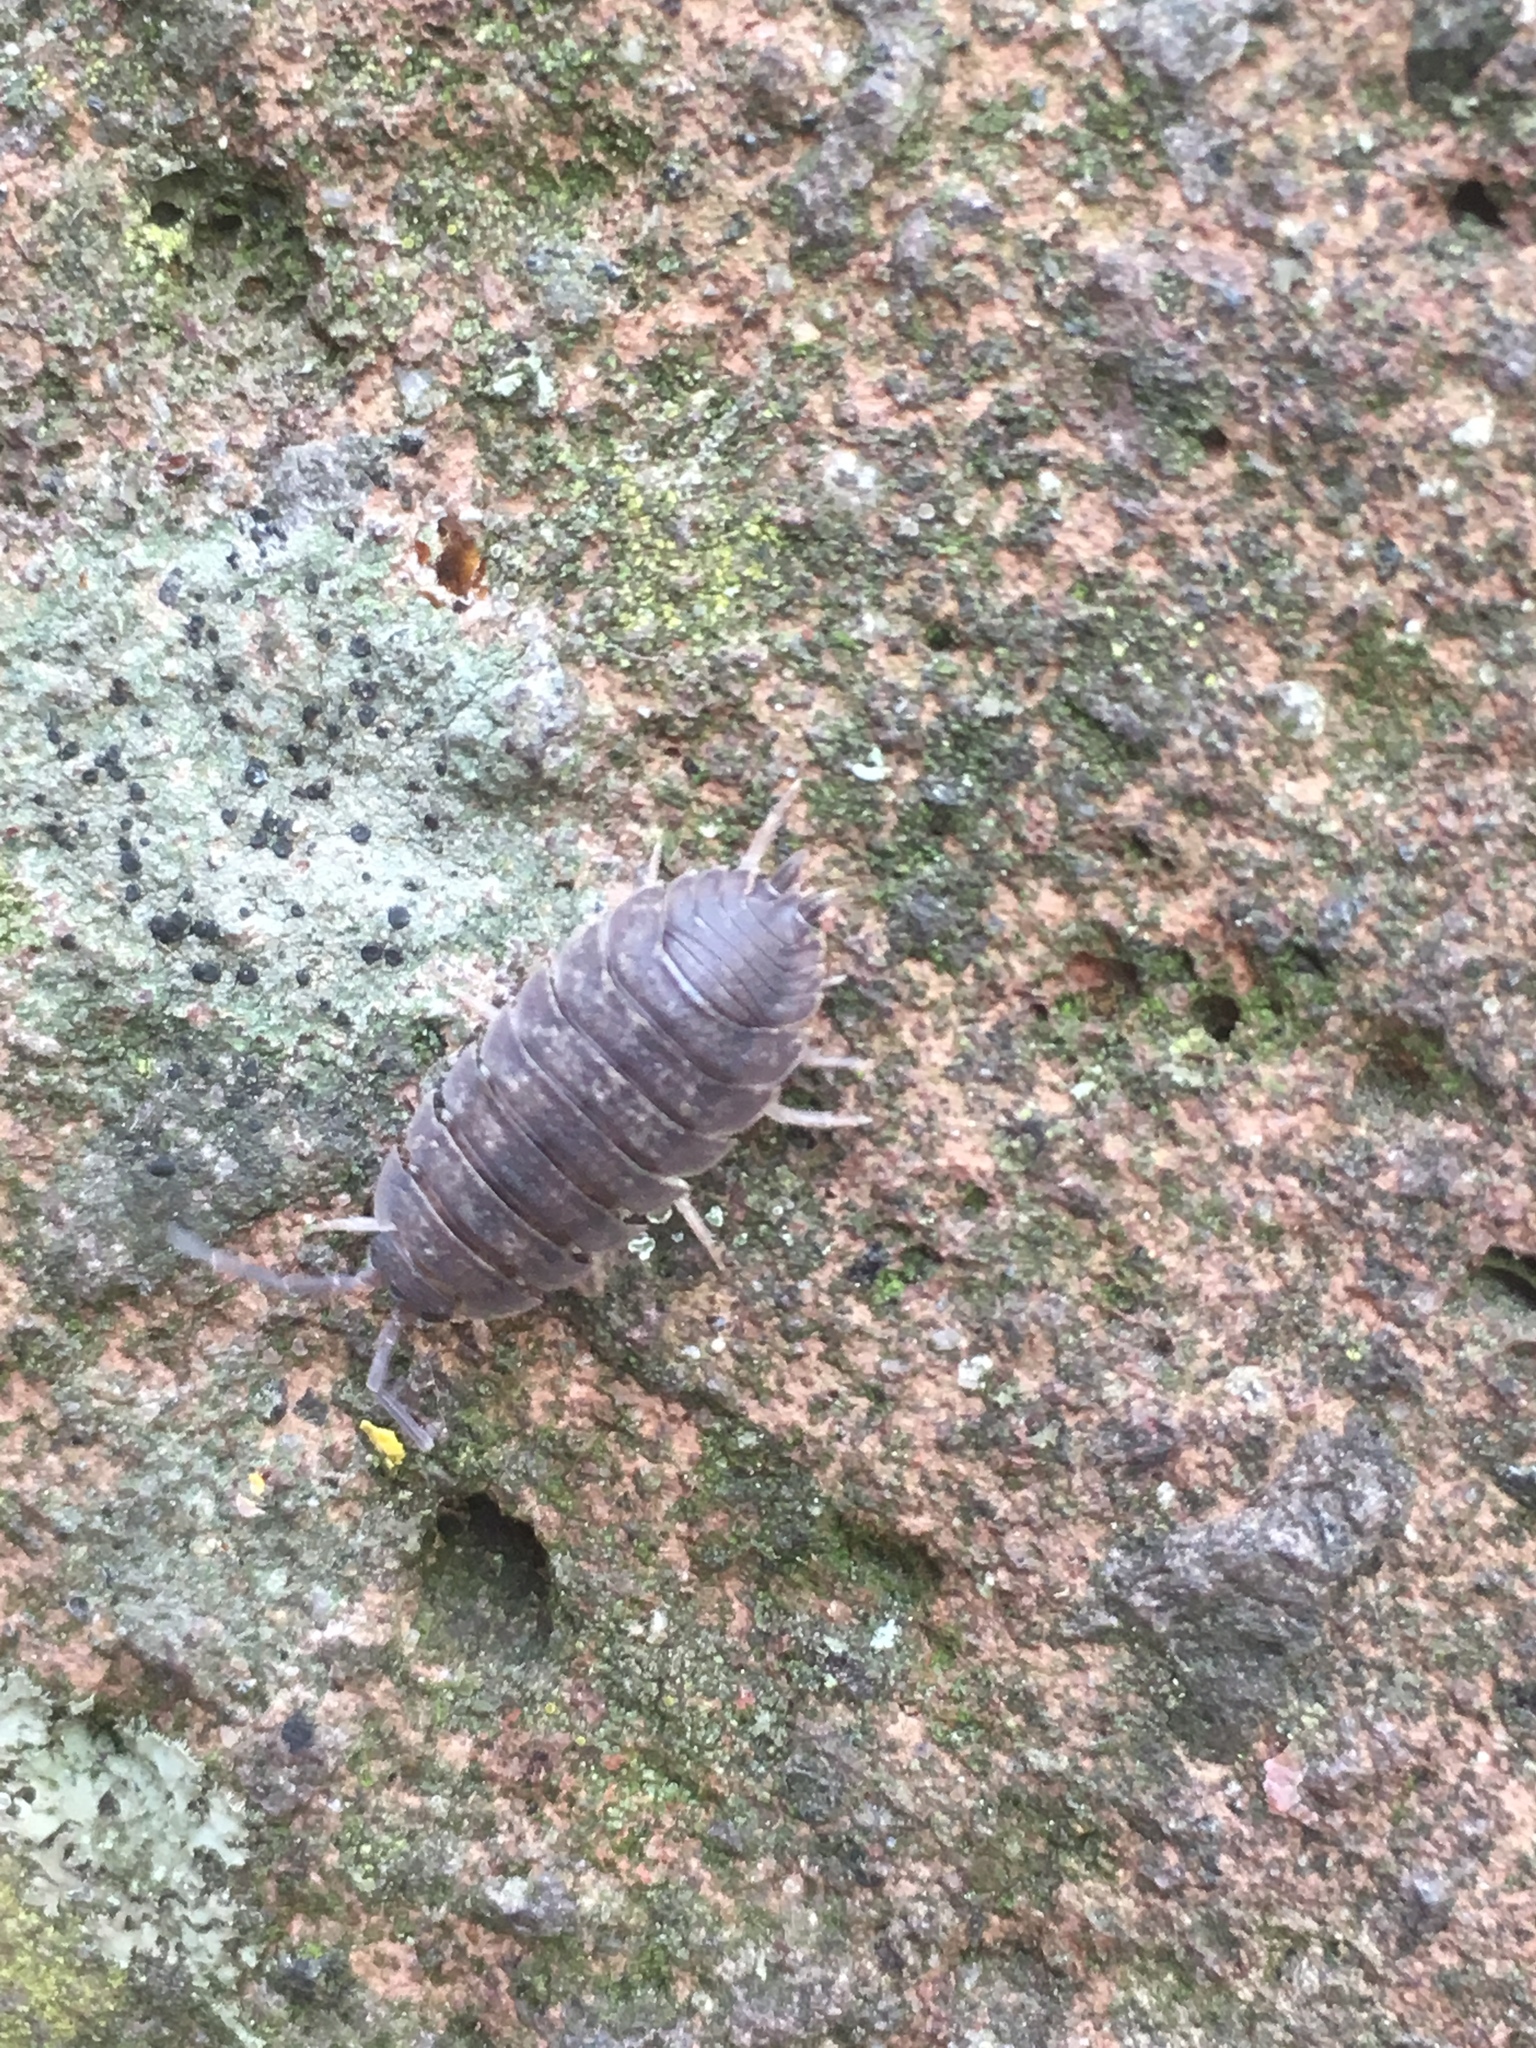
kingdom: Animalia
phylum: Arthropoda
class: Malacostraca
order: Isopoda
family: Porcellionidae
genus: Porcellio
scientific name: Porcellio scaber
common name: Common rough woodlouse
